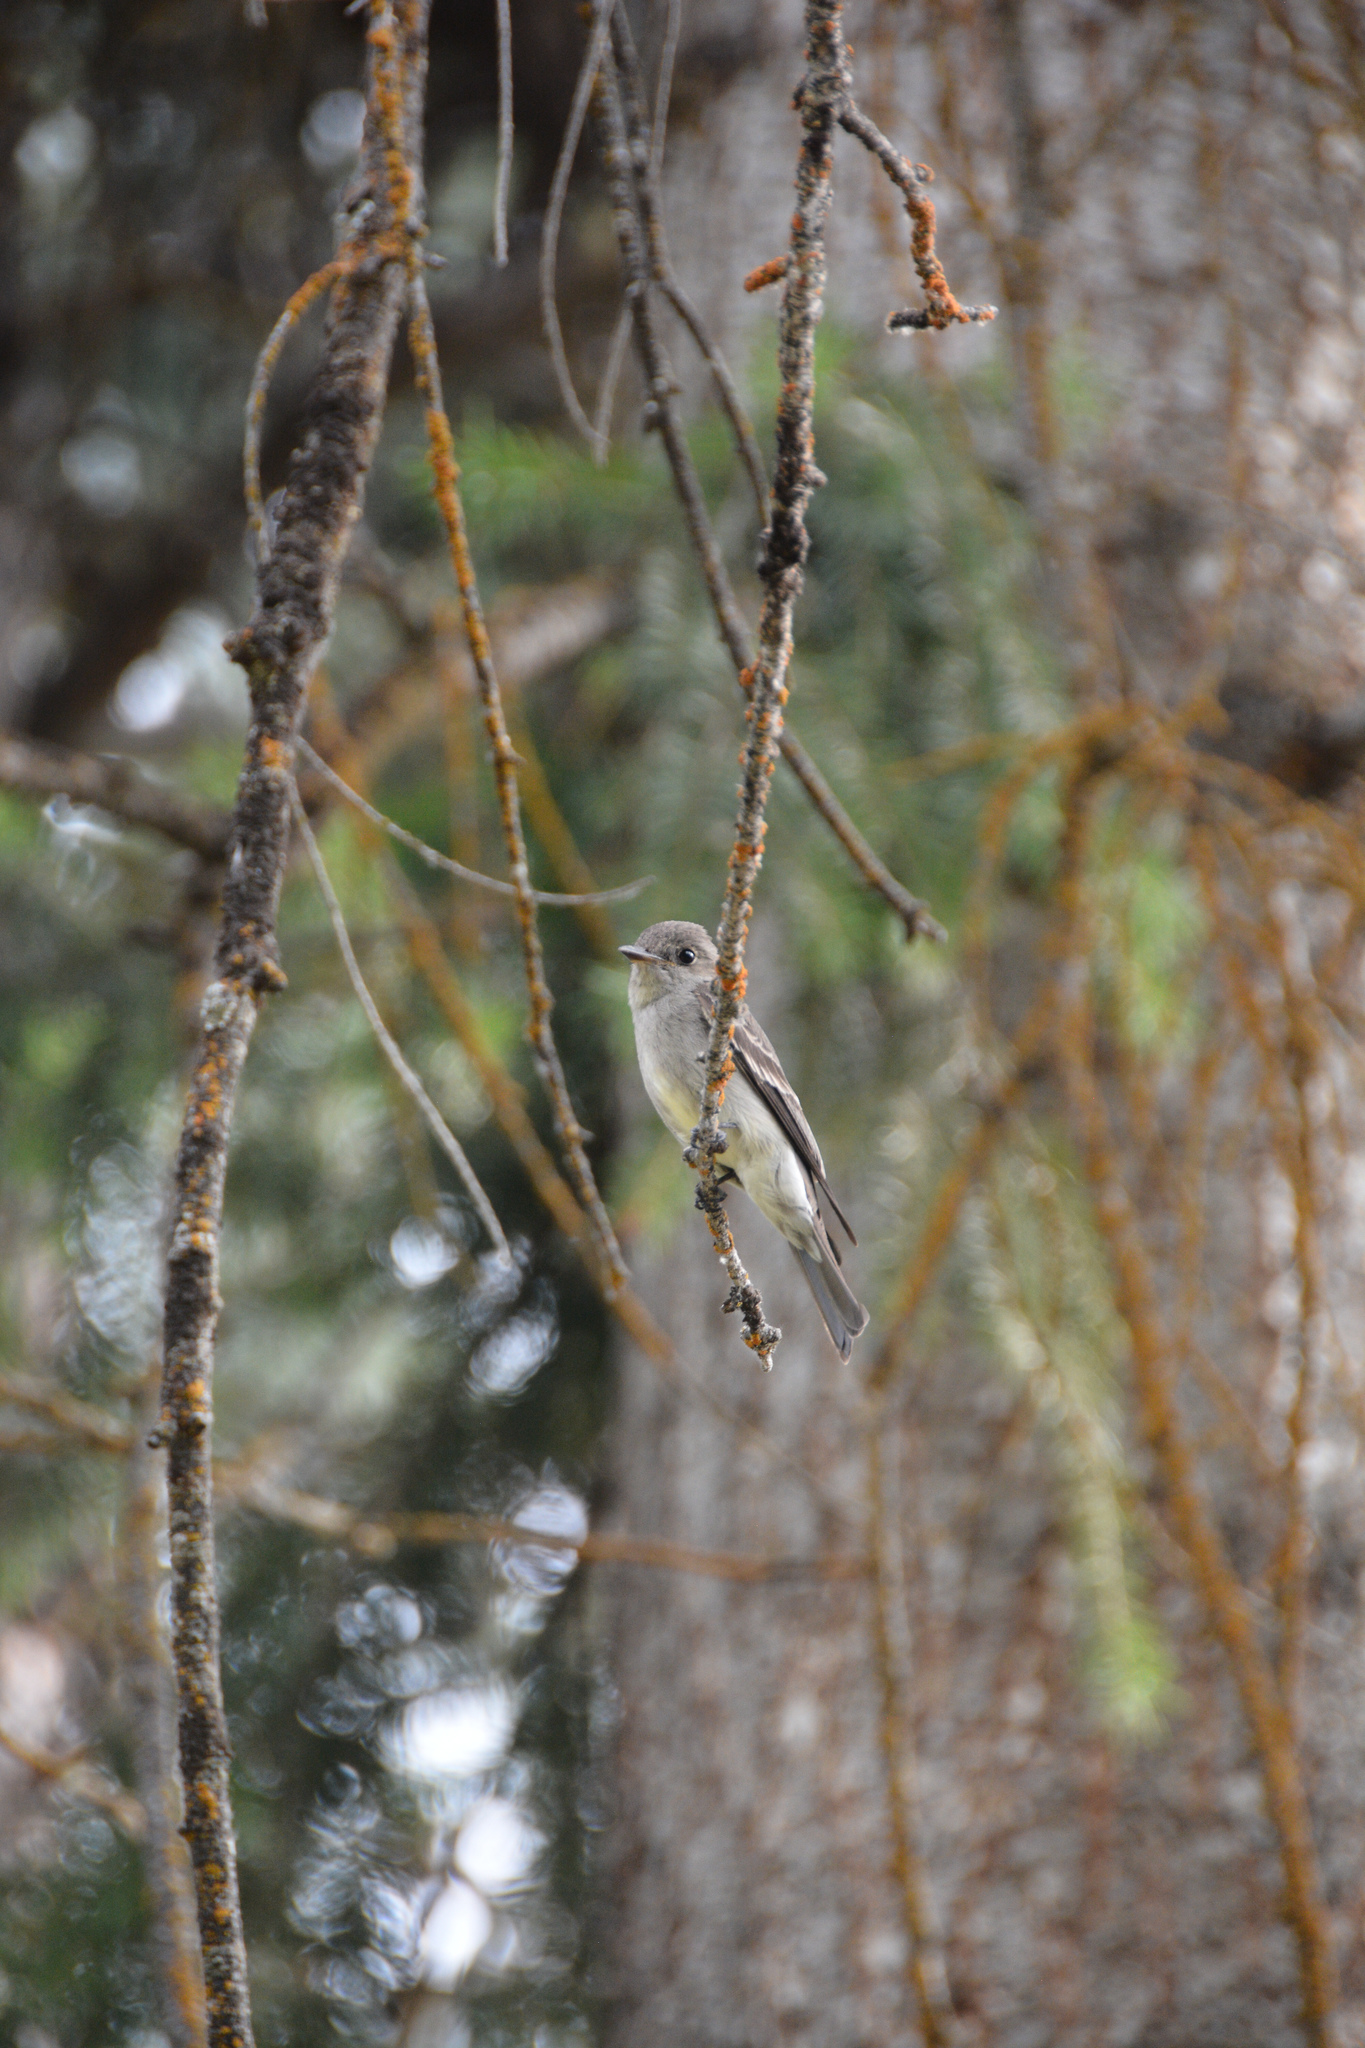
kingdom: Animalia
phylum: Chordata
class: Aves
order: Passeriformes
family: Tyrannidae
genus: Contopus
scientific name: Contopus sordidulus
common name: Western wood-pewee
